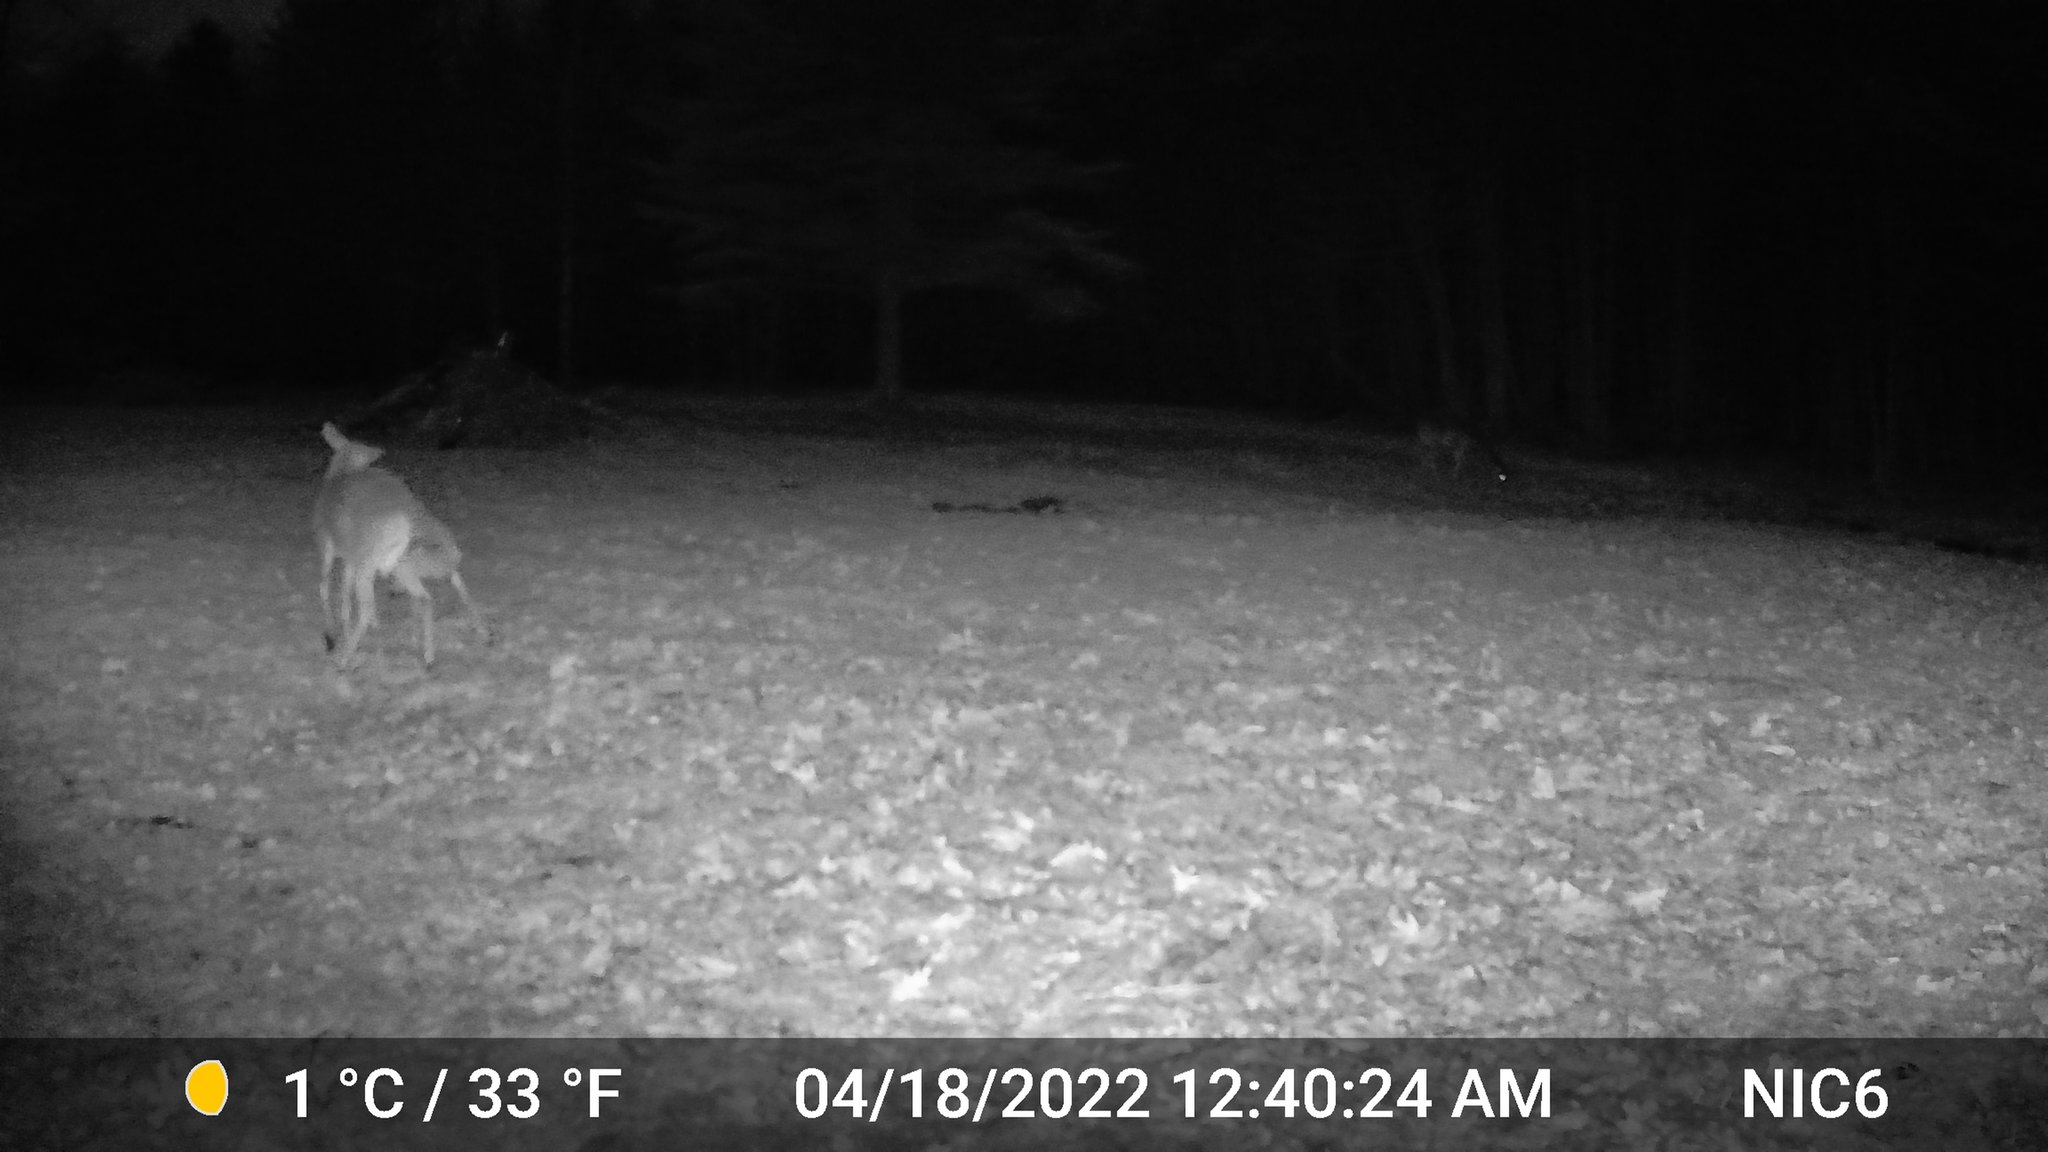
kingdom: Animalia
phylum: Chordata
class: Mammalia
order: Artiodactyla
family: Cervidae
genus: Odocoileus
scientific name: Odocoileus virginianus
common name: White-tailed deer
